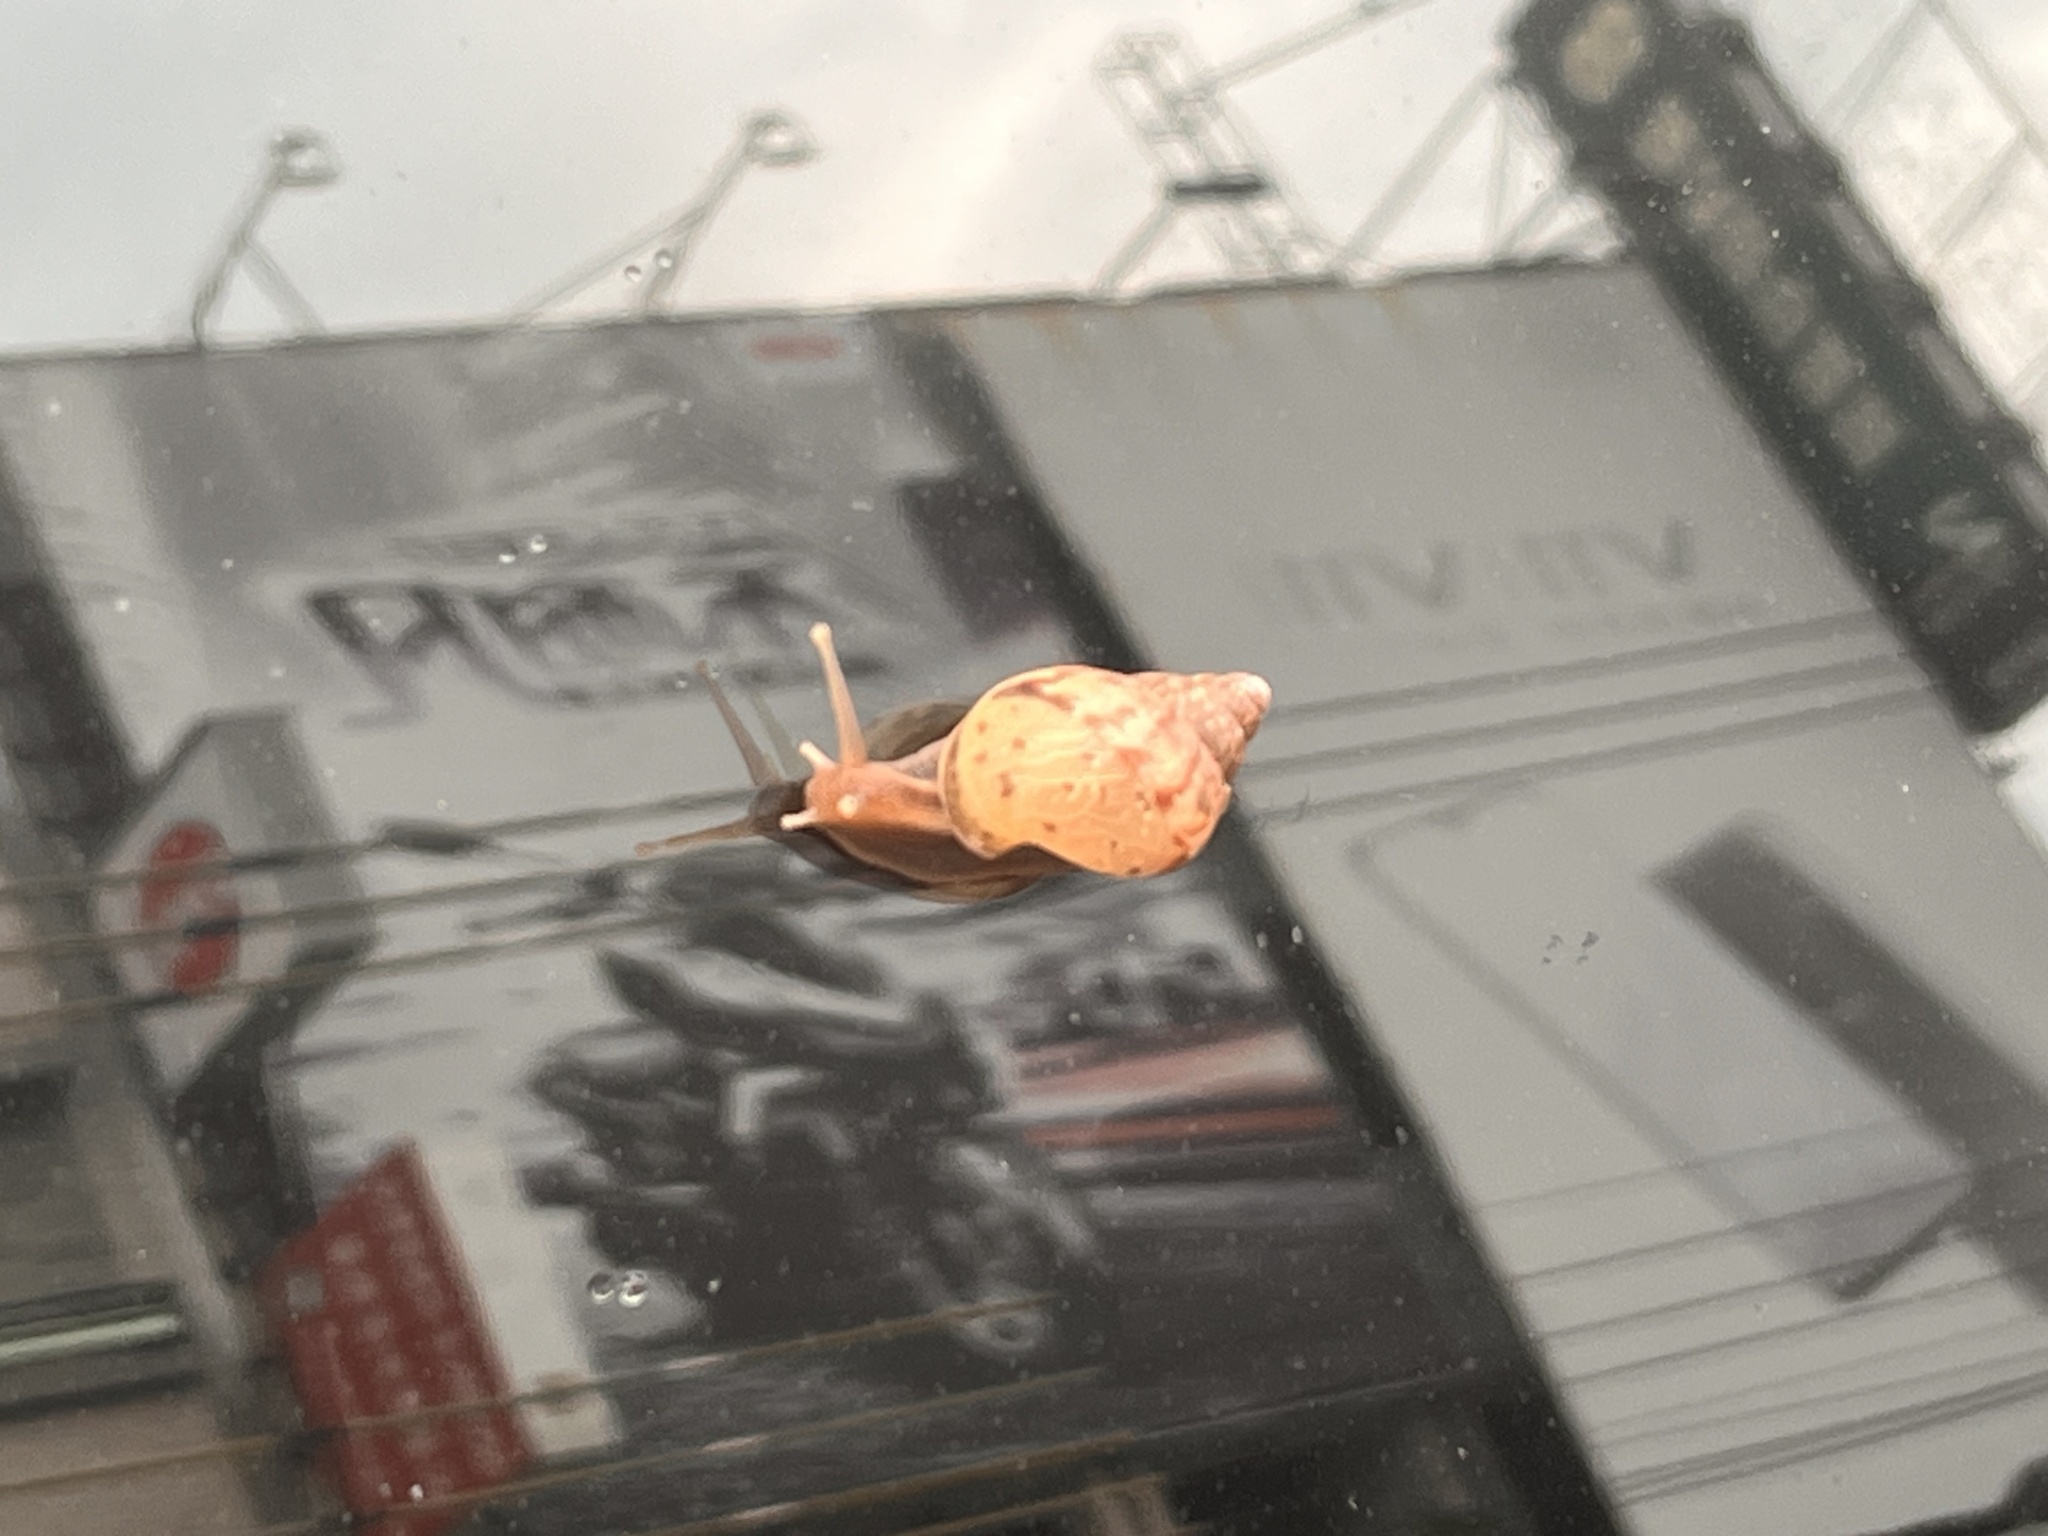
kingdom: Animalia
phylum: Mollusca
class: Gastropoda
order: Stylommatophora
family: Achatinidae
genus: Lissachatina
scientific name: Lissachatina fulica
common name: Giant african snail
